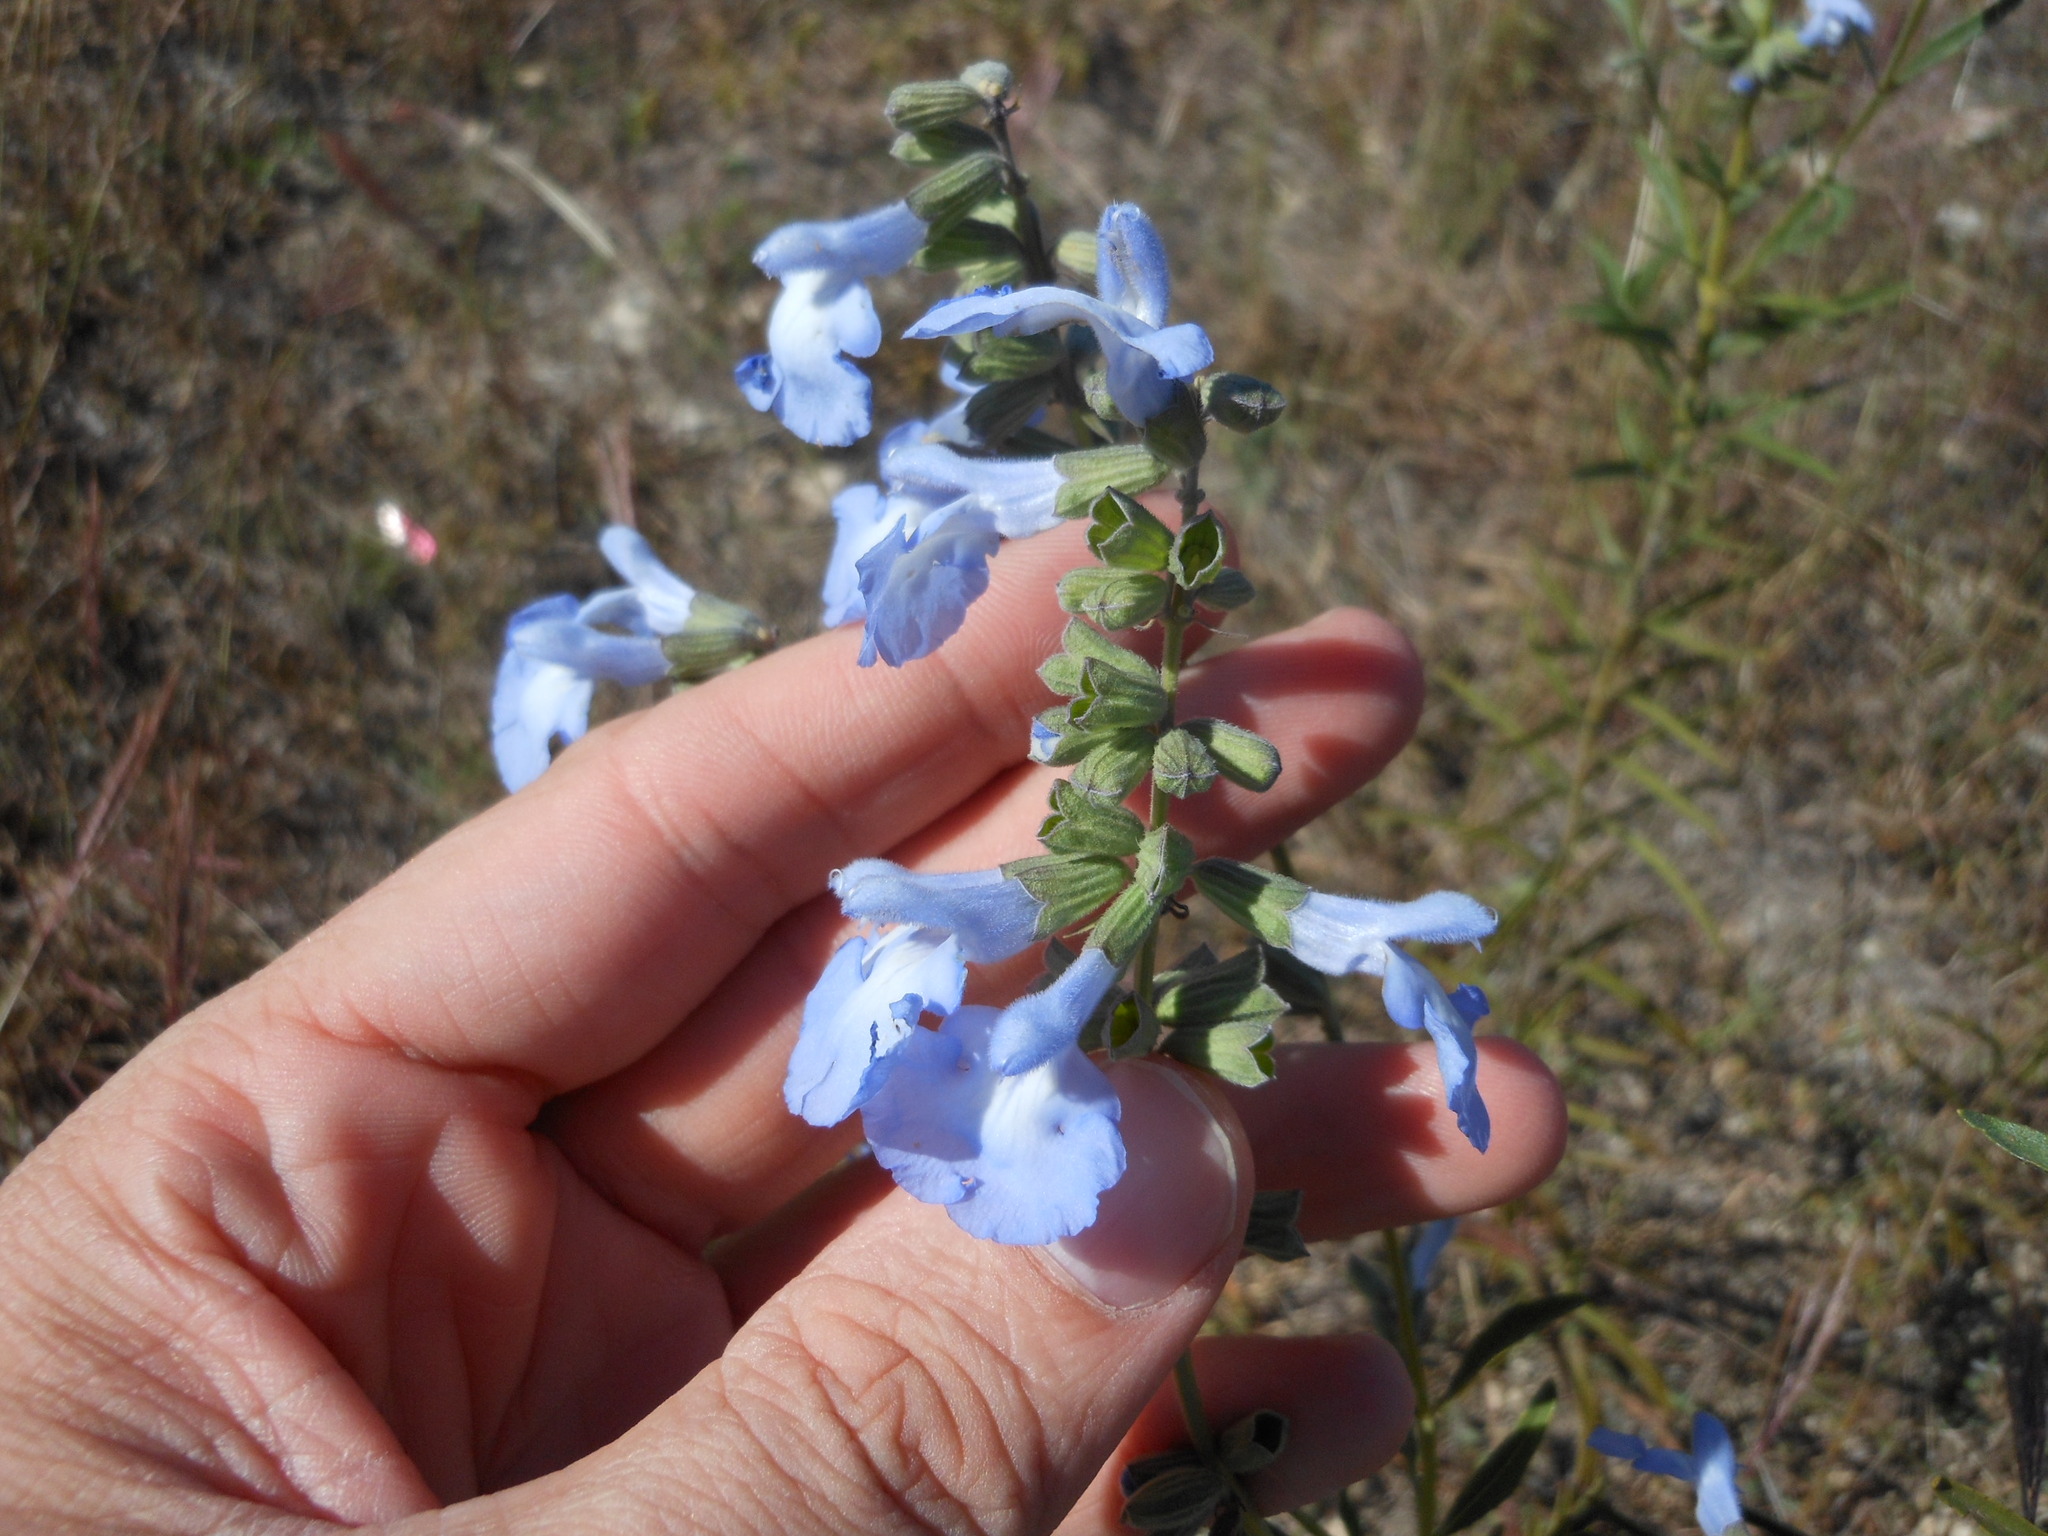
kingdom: Plantae
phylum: Tracheophyta
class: Magnoliopsida
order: Lamiales
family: Lamiaceae
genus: Salvia
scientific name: Salvia azurea
